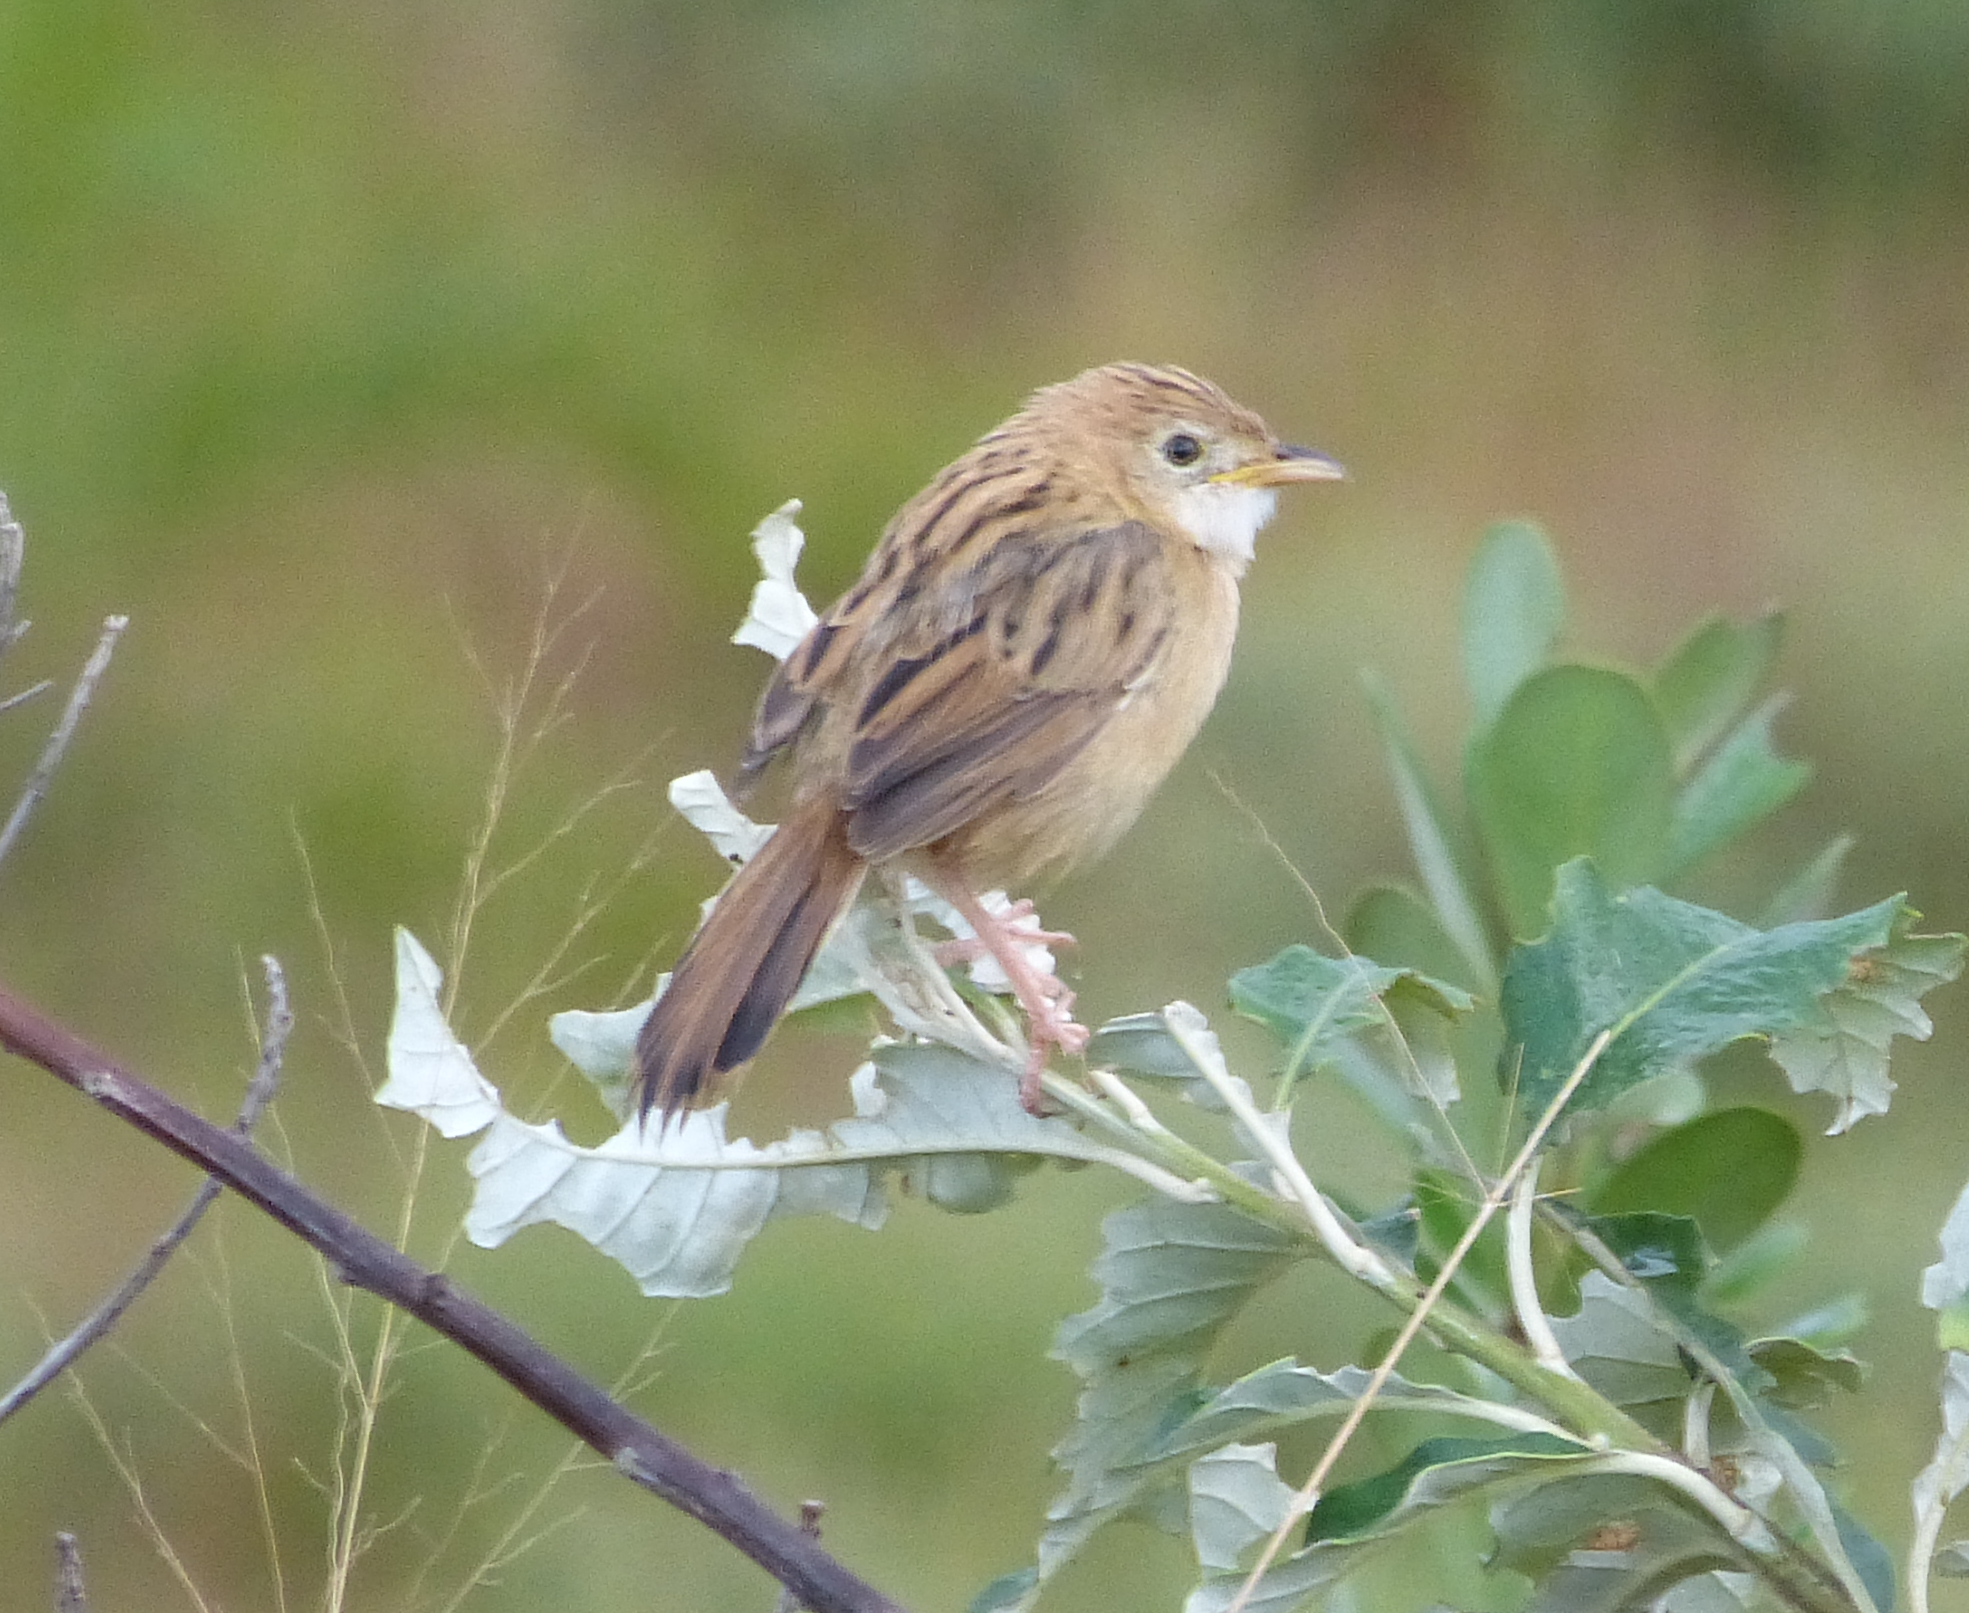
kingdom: Animalia
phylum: Chordata
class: Aves
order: Passeriformes
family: Cisticolidae
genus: Cisticola
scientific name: Cisticola chiniana
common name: Rattling cisticola
